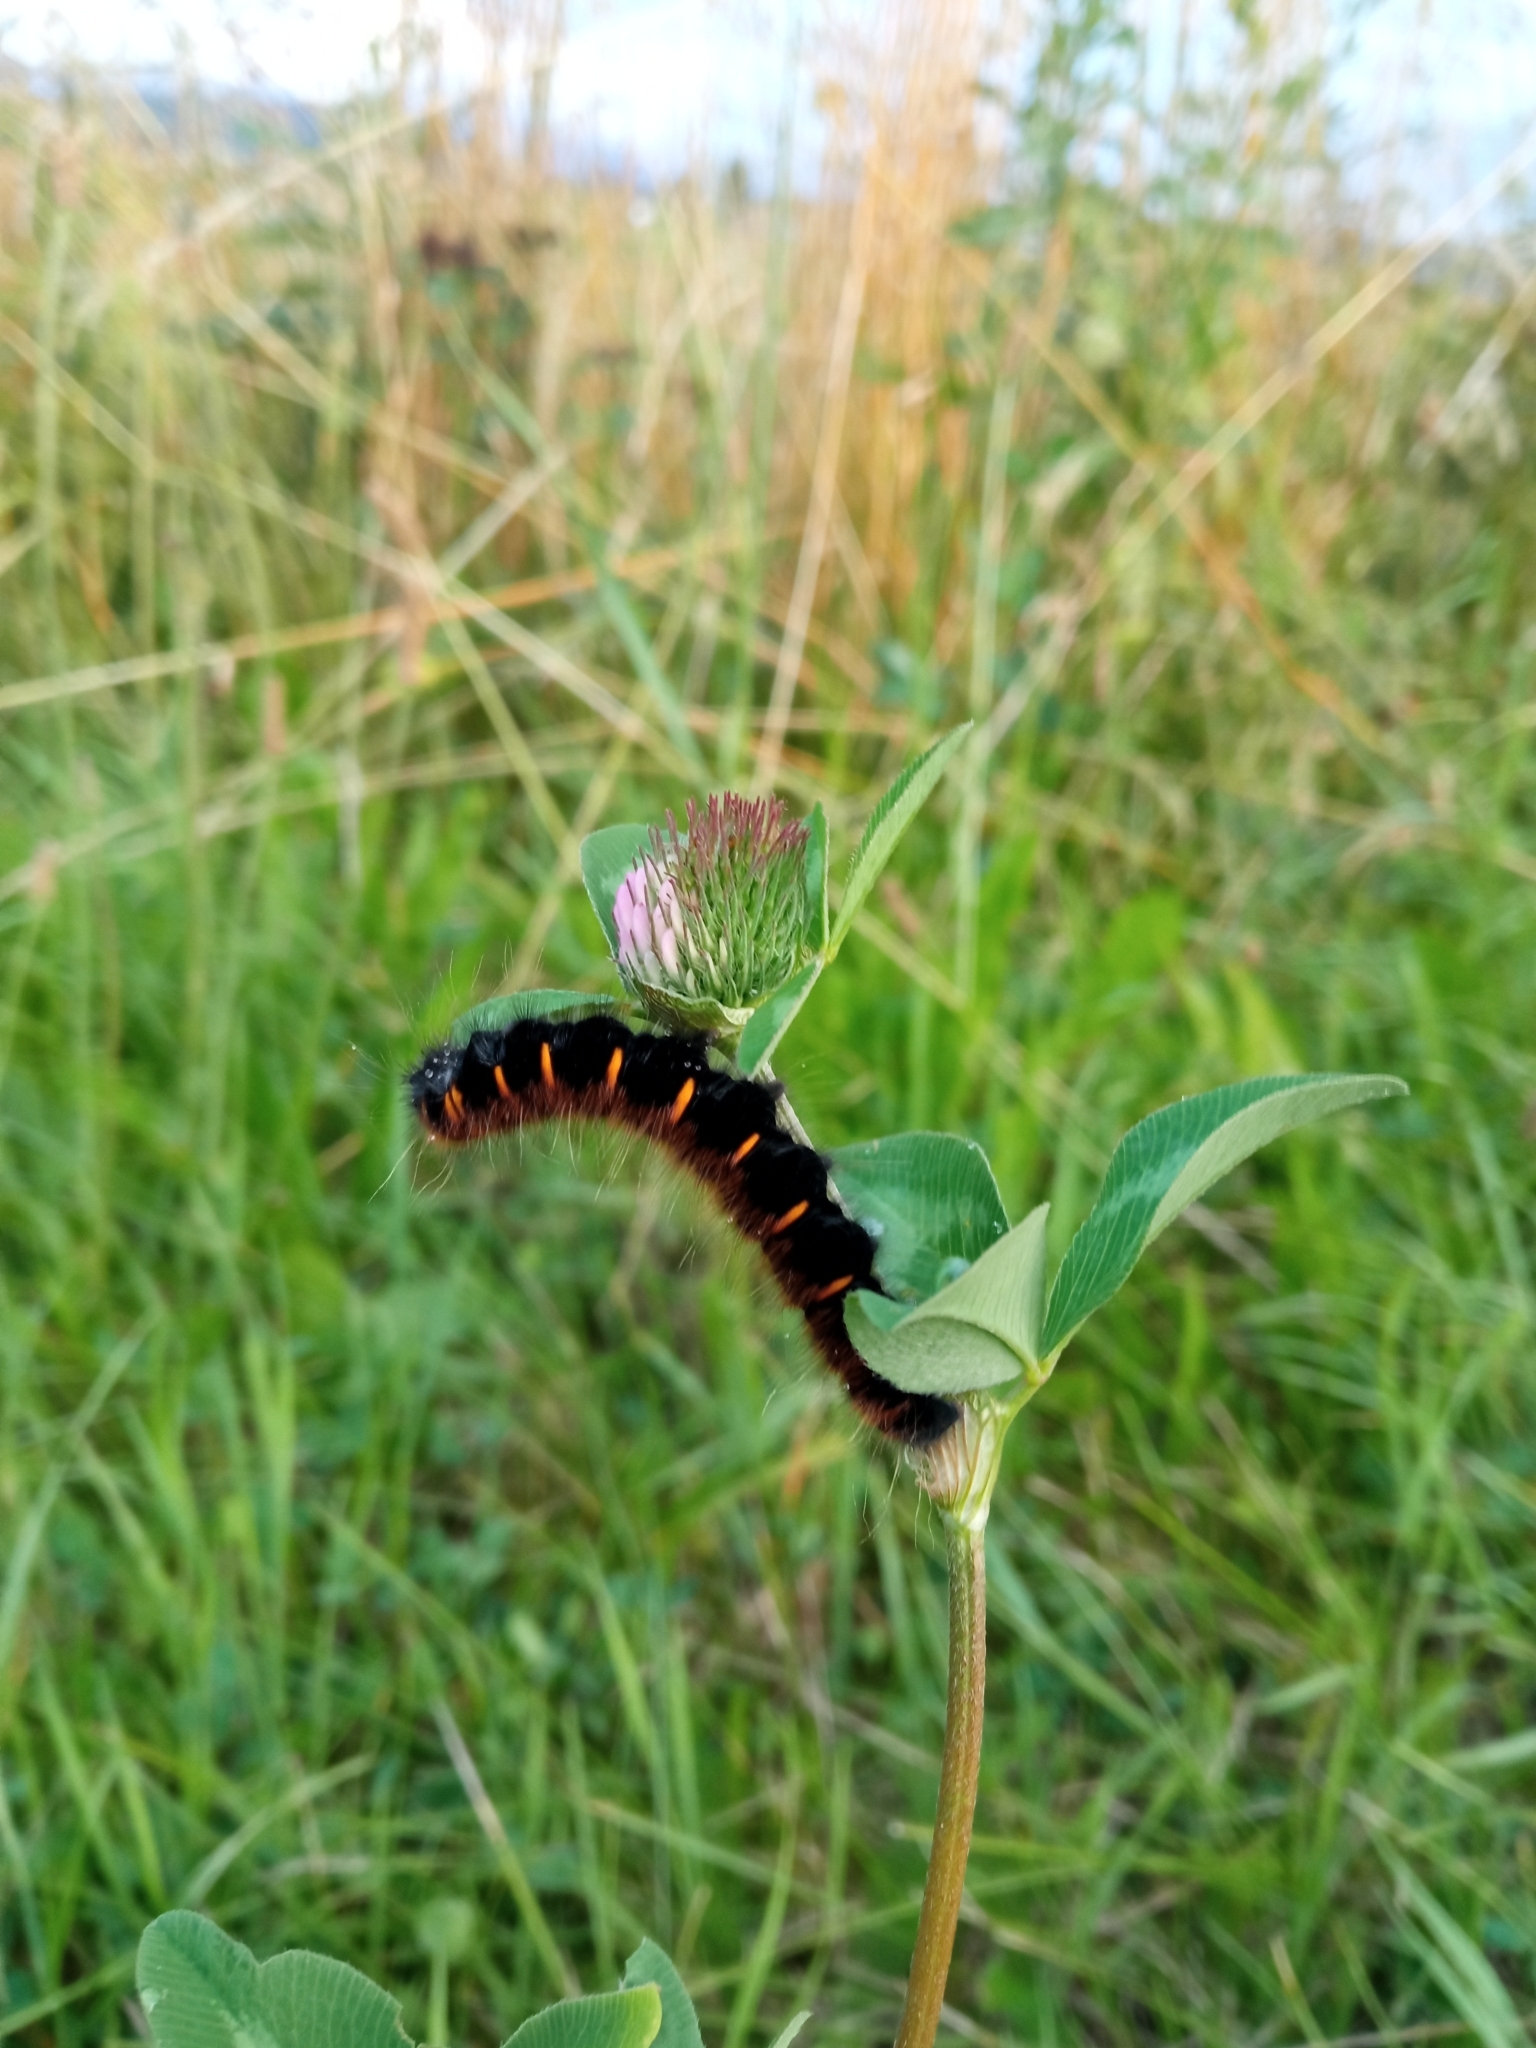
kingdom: Animalia
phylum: Arthropoda
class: Insecta
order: Lepidoptera
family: Lasiocampidae
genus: Macrothylacia
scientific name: Macrothylacia rubi
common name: Fox moth
